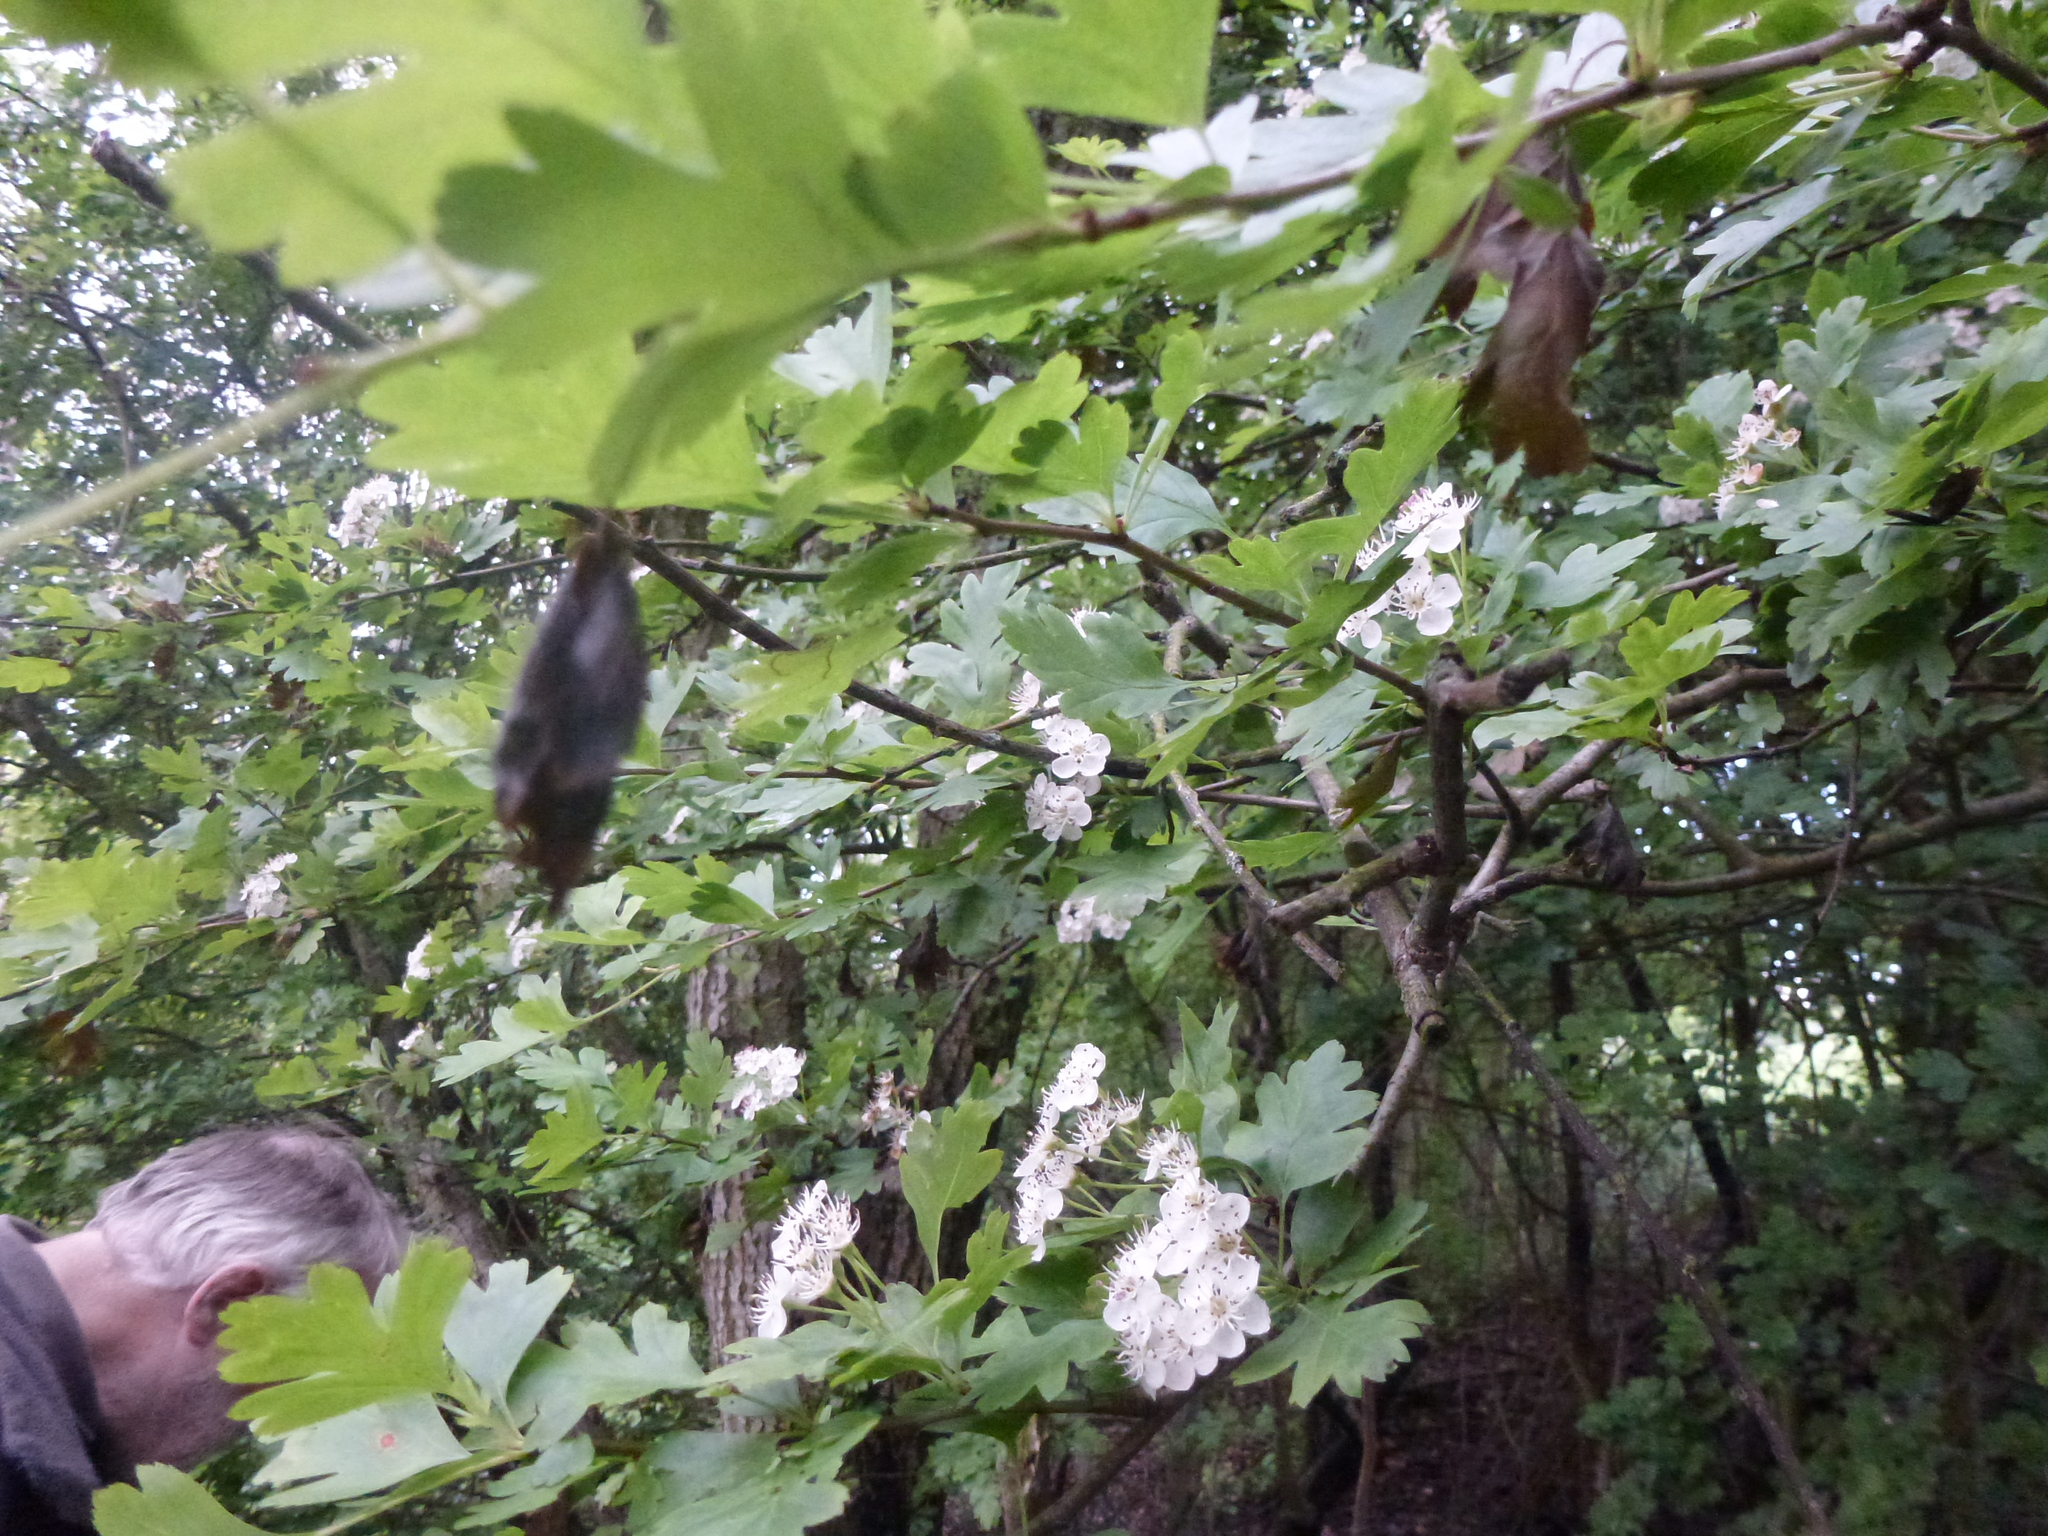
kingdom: Fungi
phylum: Ascomycota
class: Leotiomycetes
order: Helotiales
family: Sclerotiniaceae
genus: Monilinia
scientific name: Monilinia johnsonii
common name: Haw goblet
